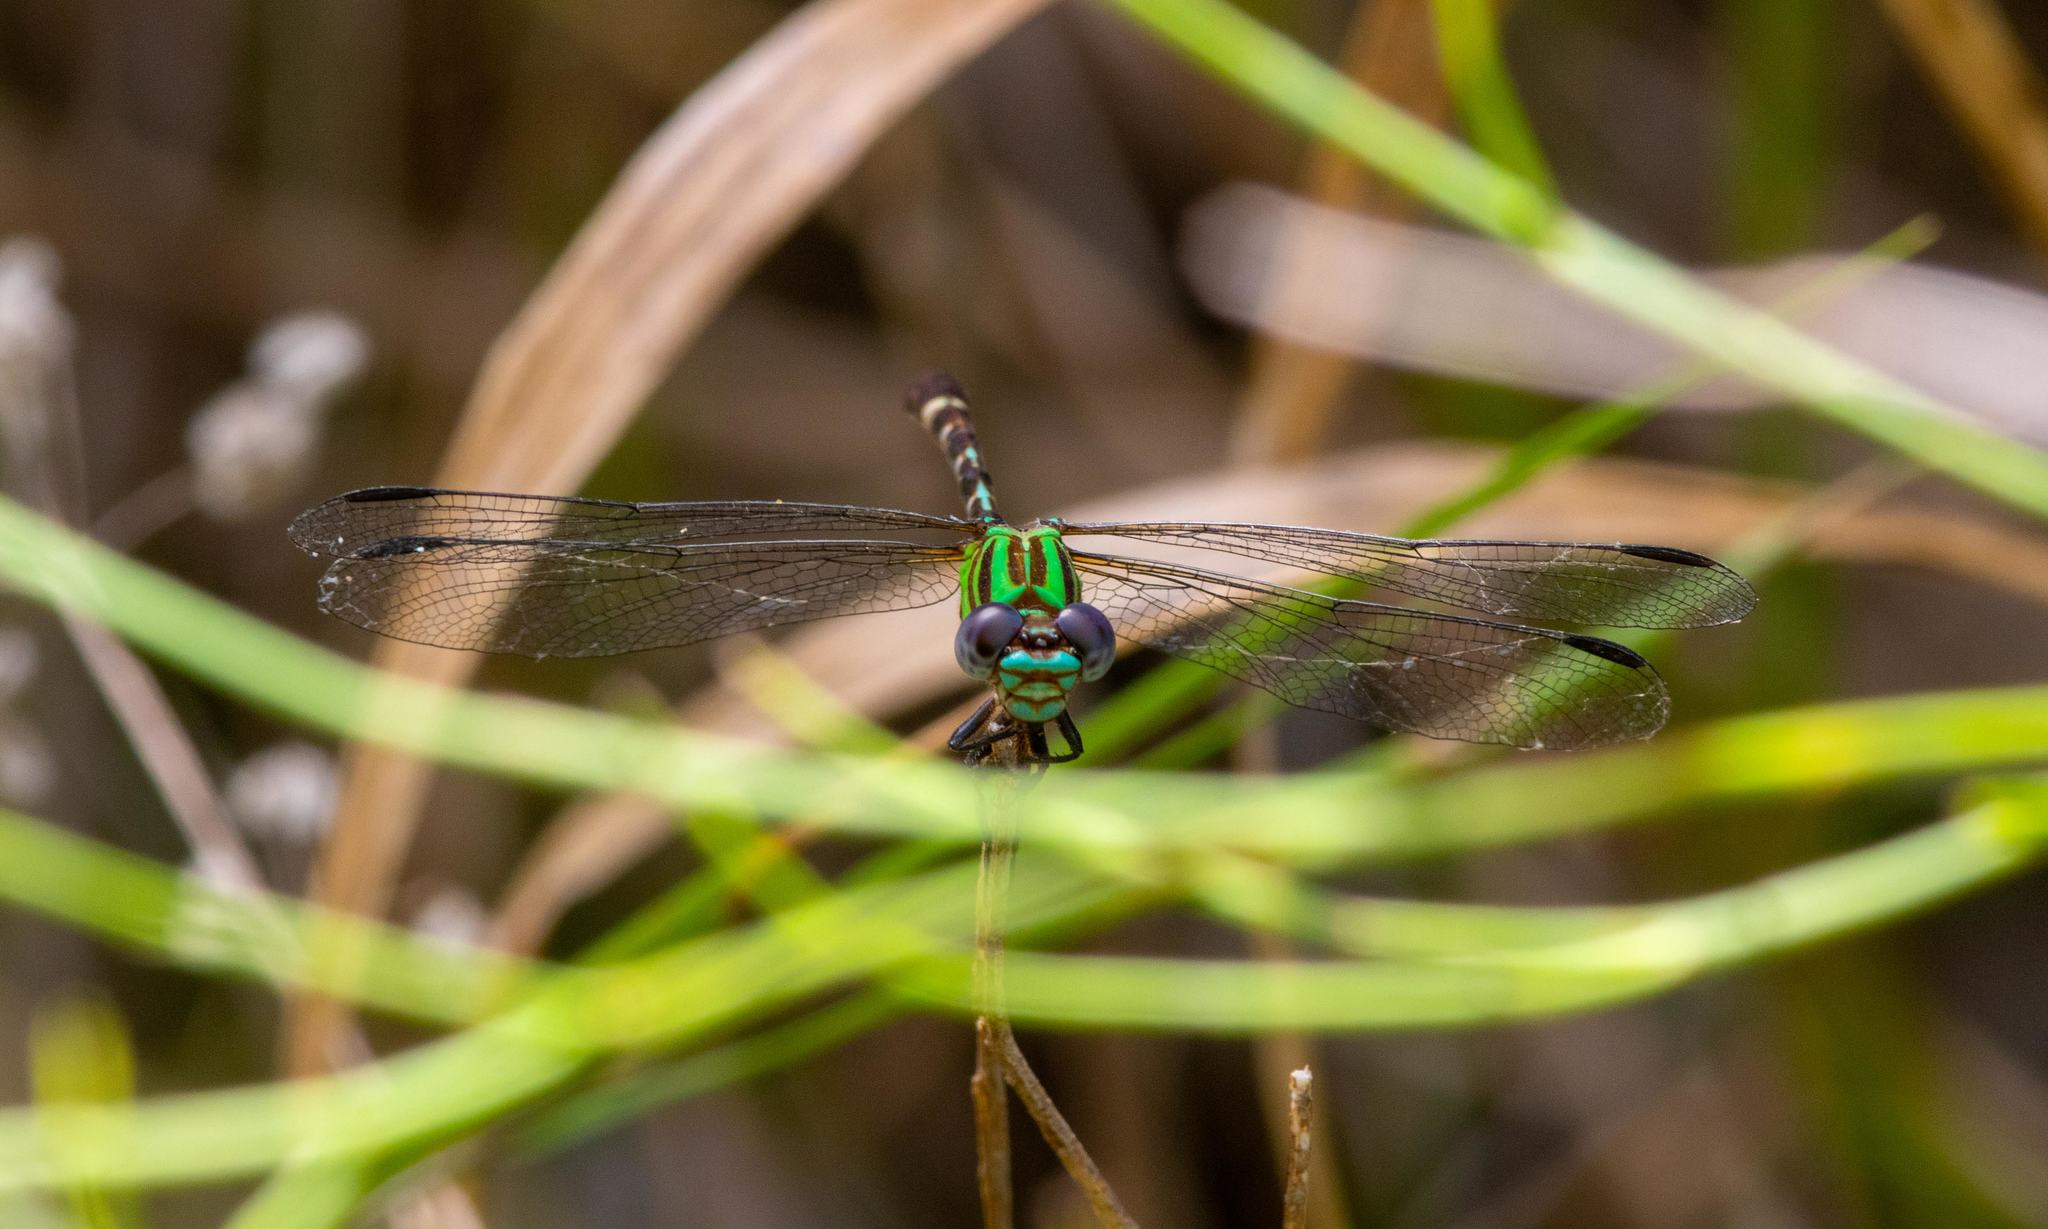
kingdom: Animalia
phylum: Arthropoda
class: Insecta
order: Odonata
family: Gomphidae
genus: Erpetogomphus
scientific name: Erpetogomphus eutainia
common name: Blue-faced ringtail
